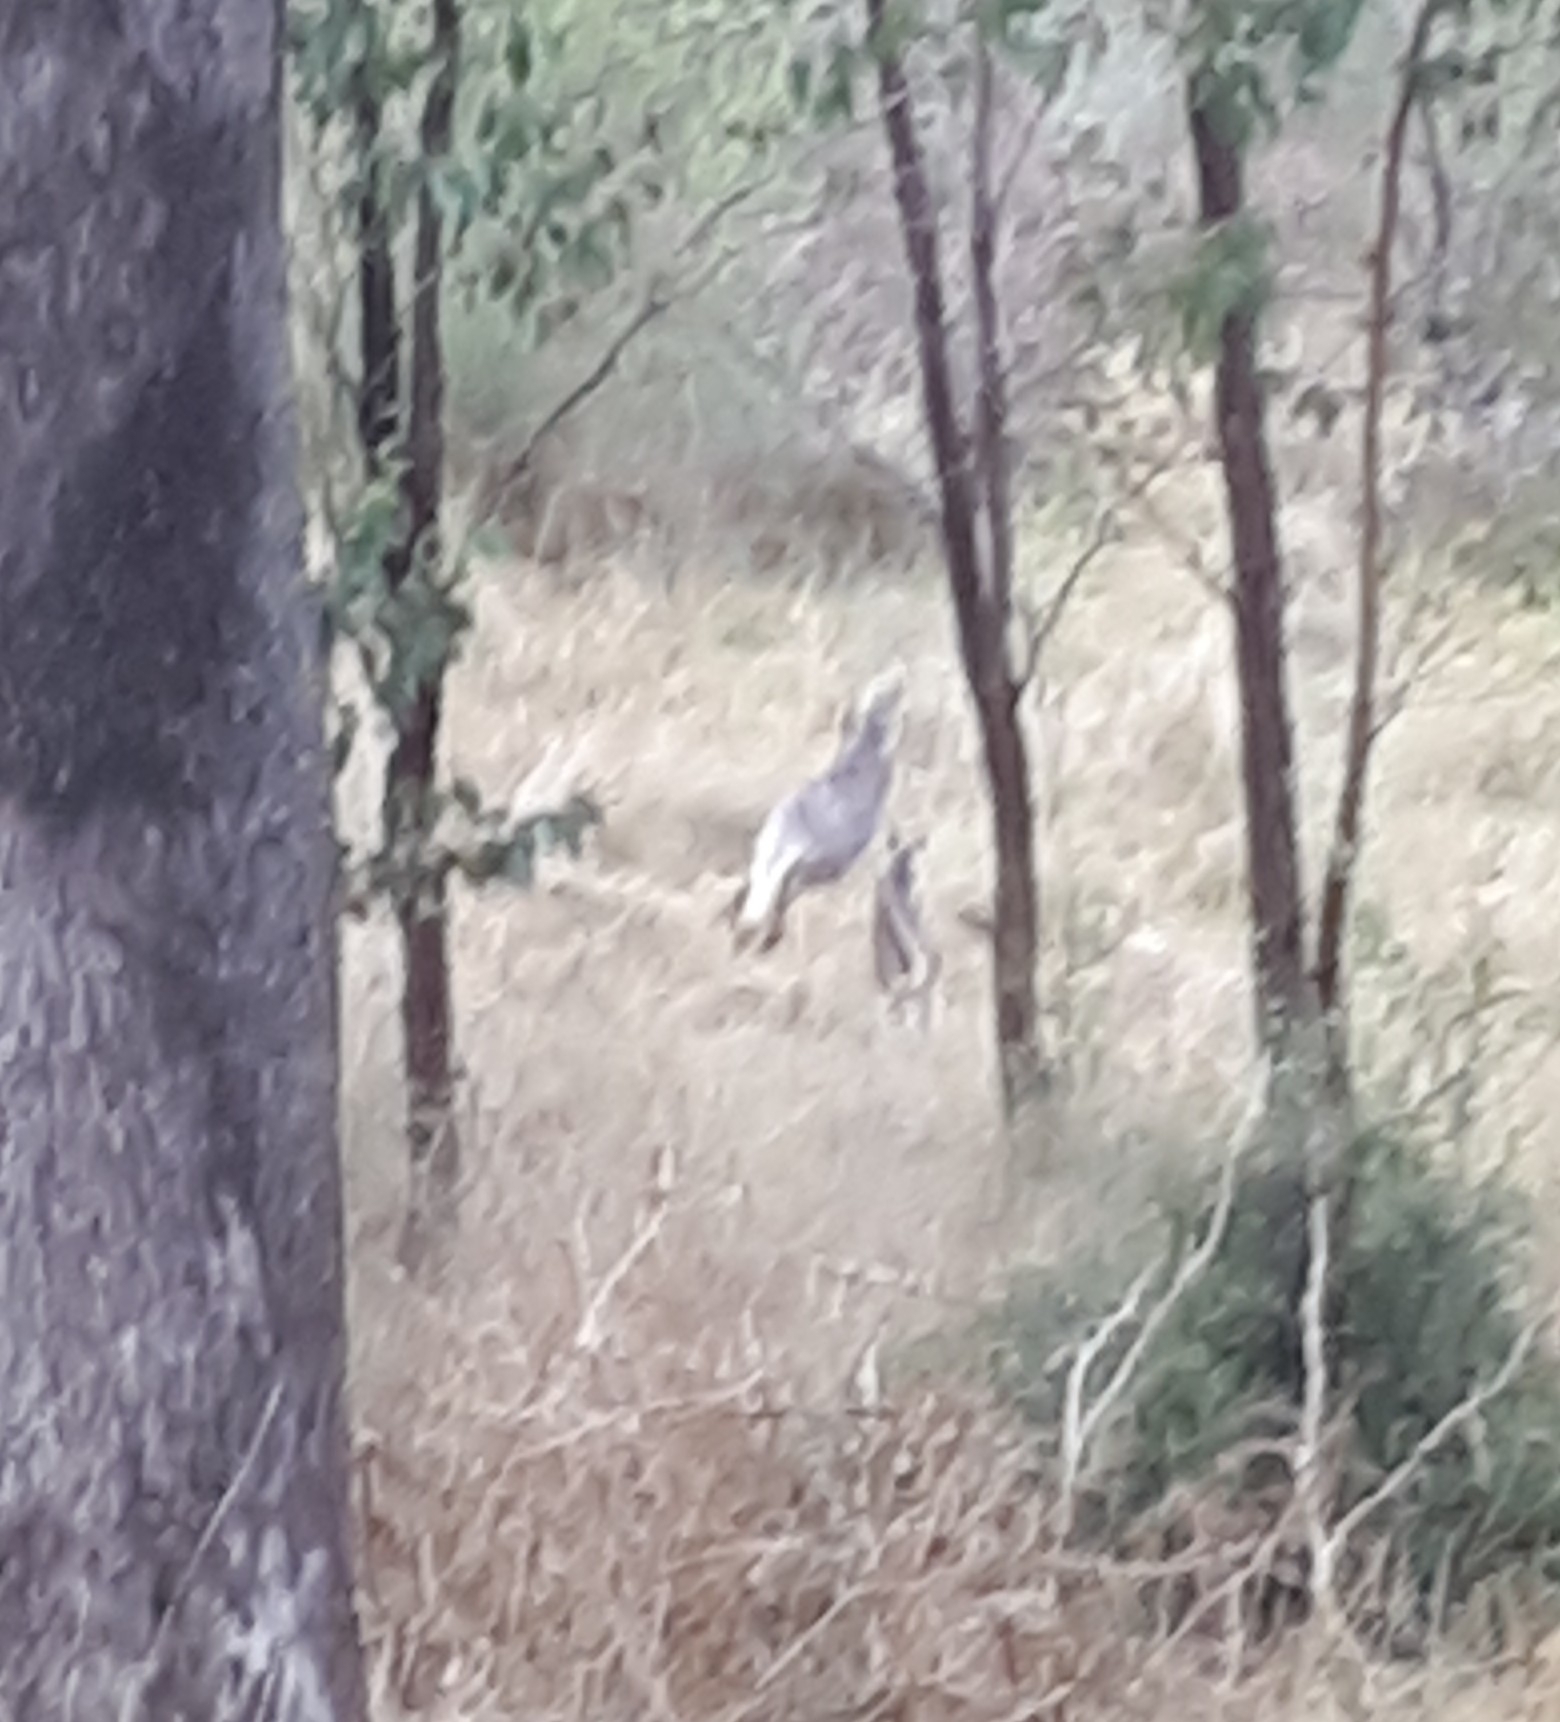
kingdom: Animalia
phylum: Chordata
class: Mammalia
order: Diprotodontia
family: Macropodidae
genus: Macropus
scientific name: Macropus robustus
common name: Eastern wallaroo
